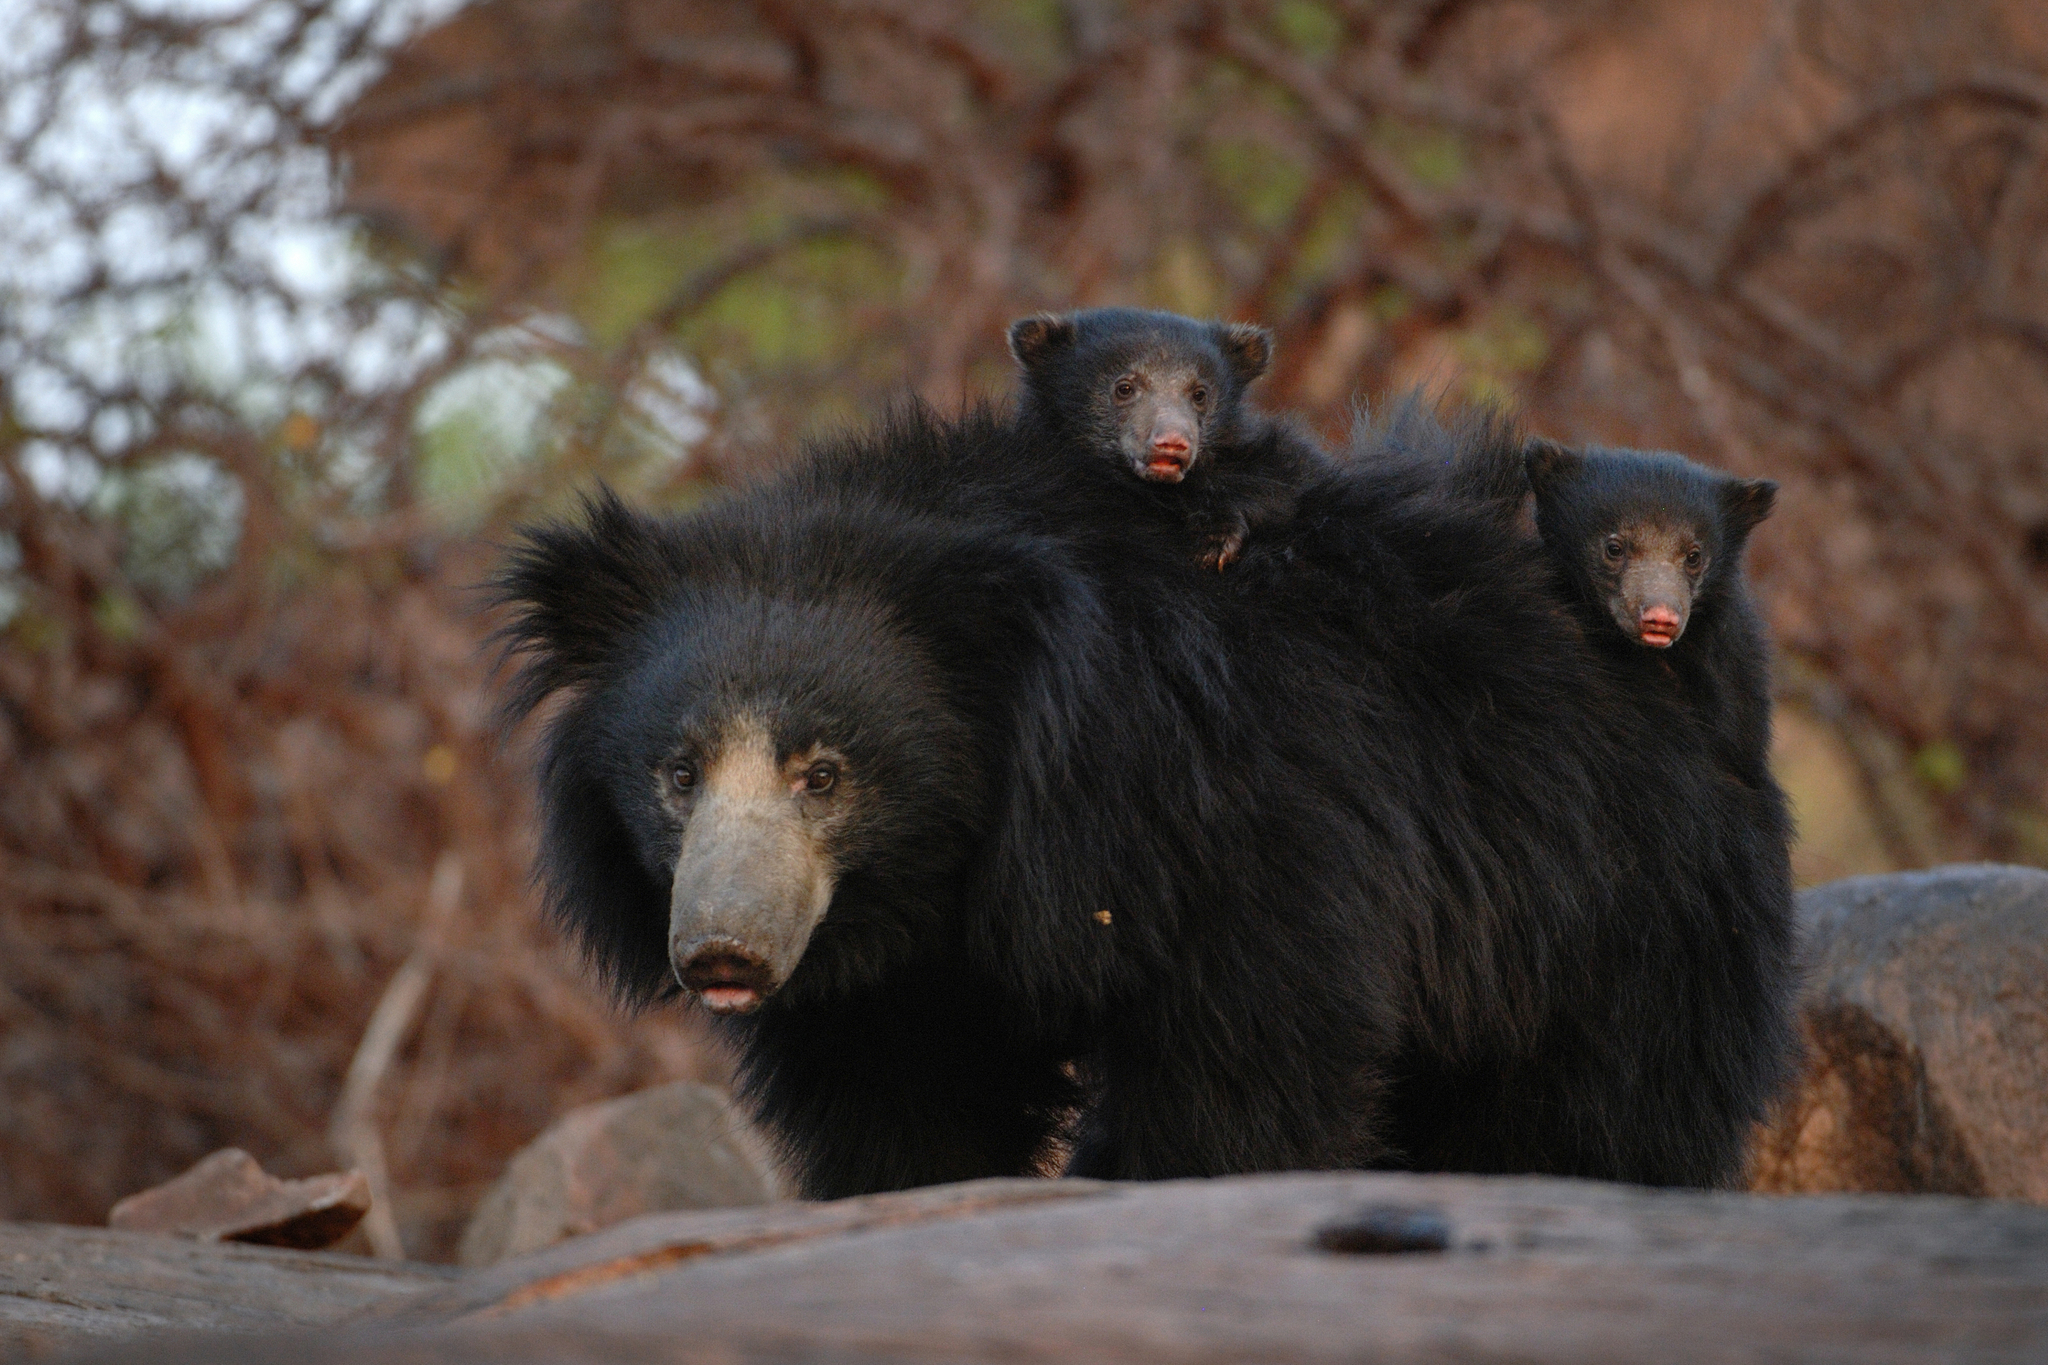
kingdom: Animalia
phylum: Chordata
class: Mammalia
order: Carnivora
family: Ursidae
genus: Melursus
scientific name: Melursus ursinus
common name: Sloth bear
